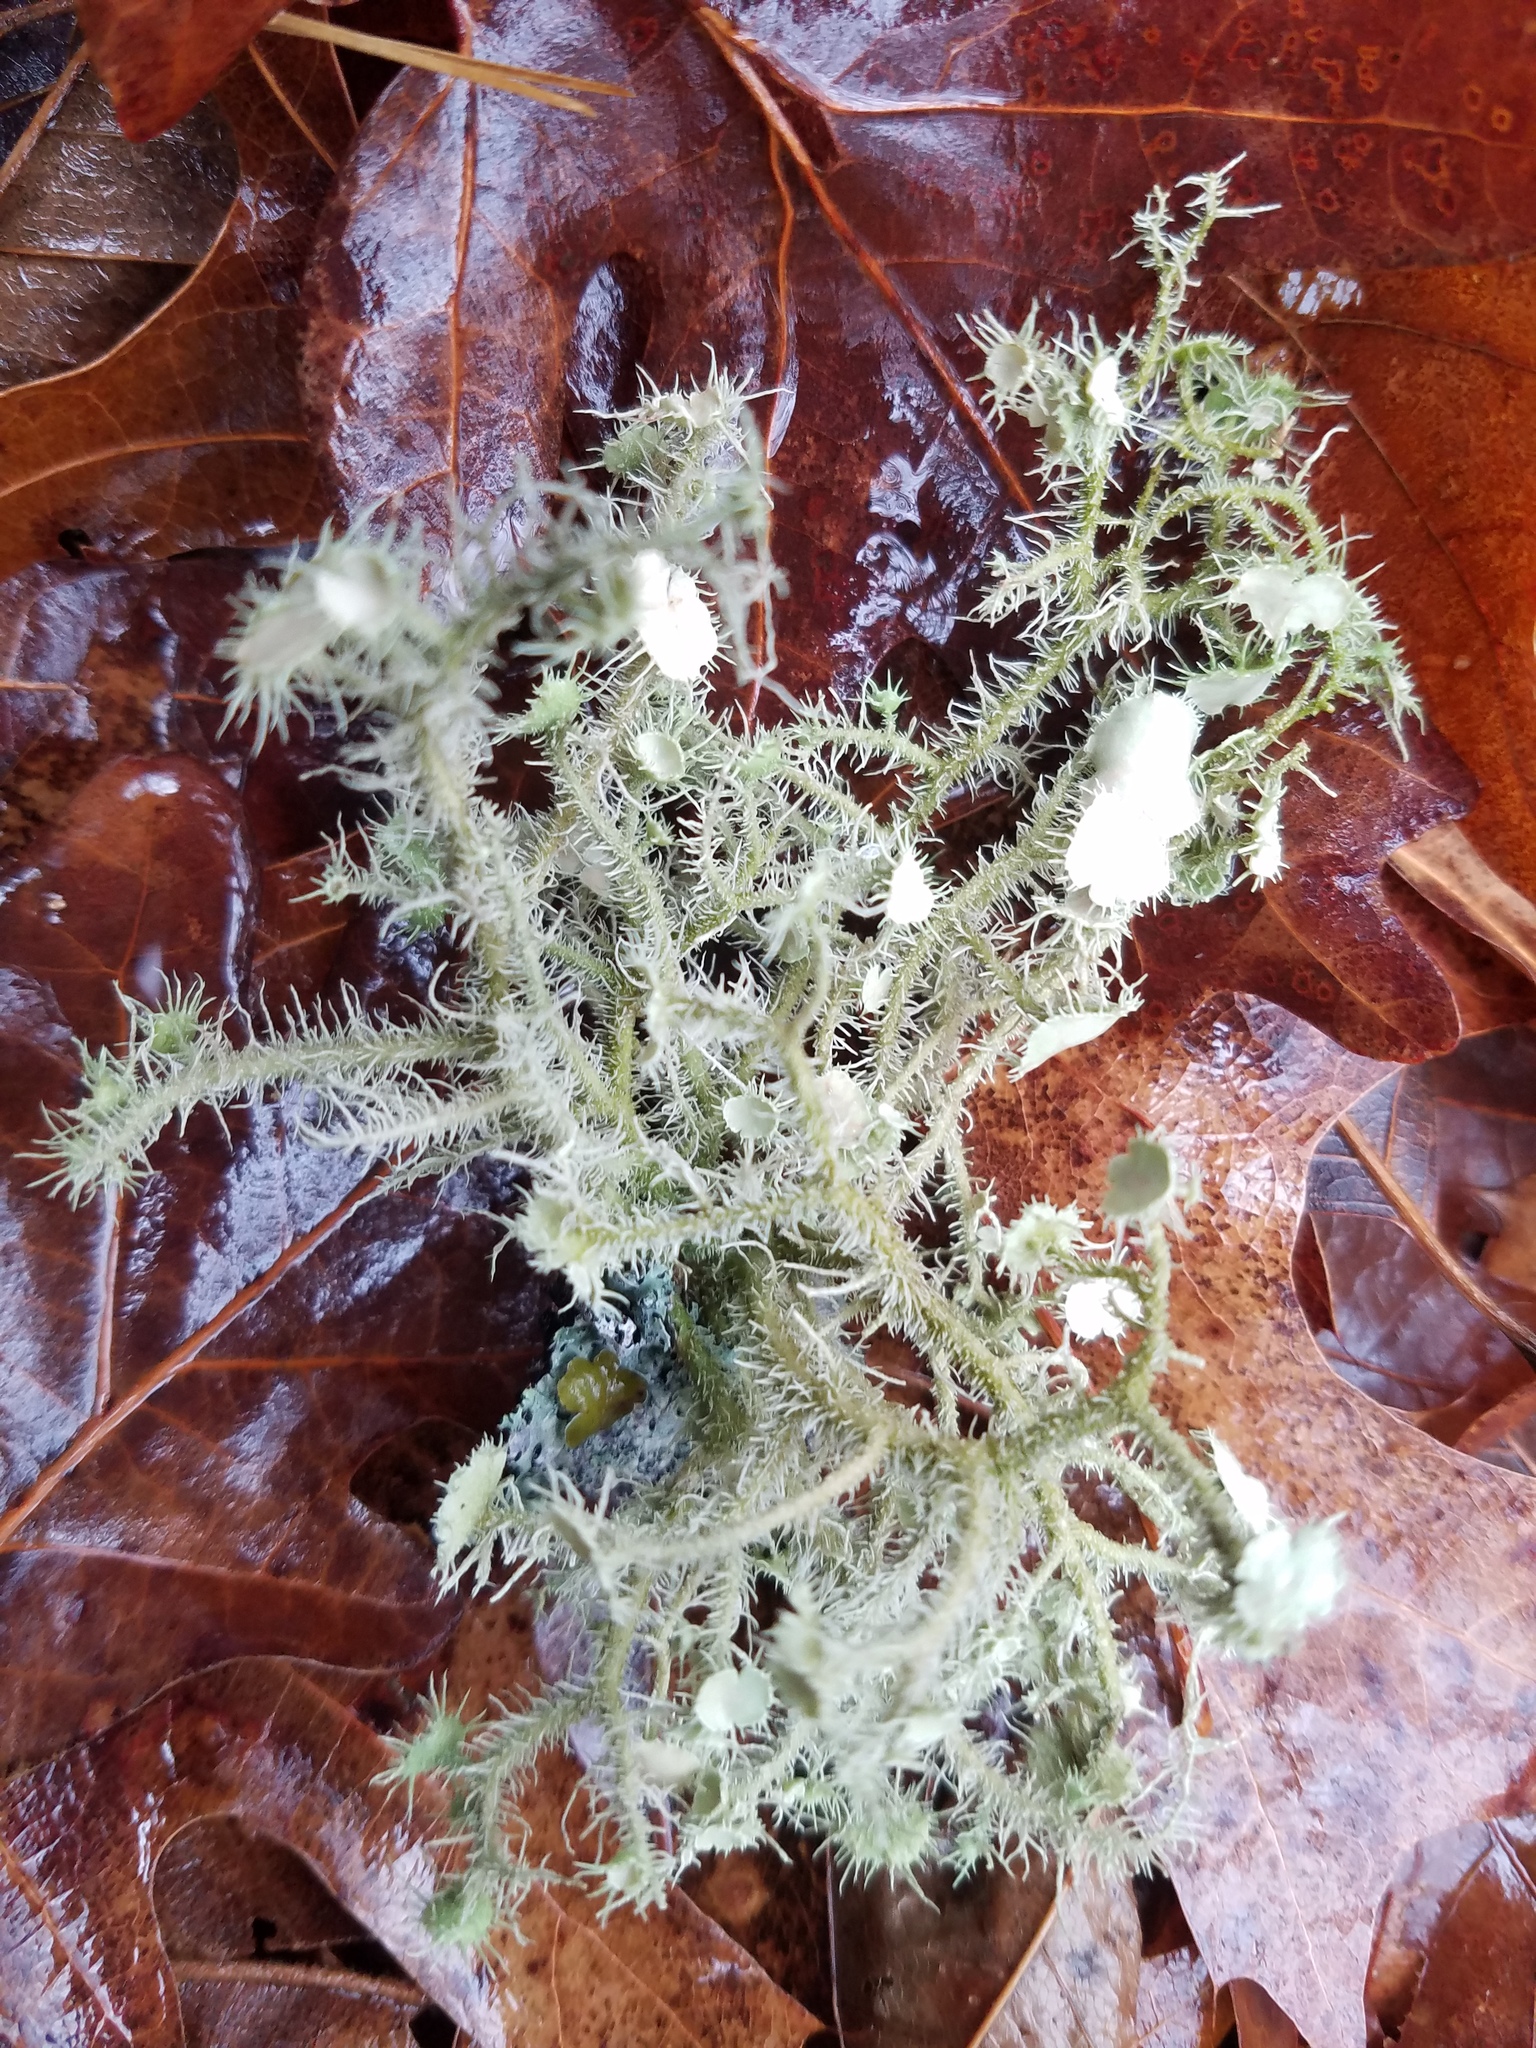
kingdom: Fungi
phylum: Ascomycota
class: Lecanoromycetes
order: Lecanorales
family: Parmeliaceae
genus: Usnea
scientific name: Usnea strigosa
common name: Bushy beard lichen
